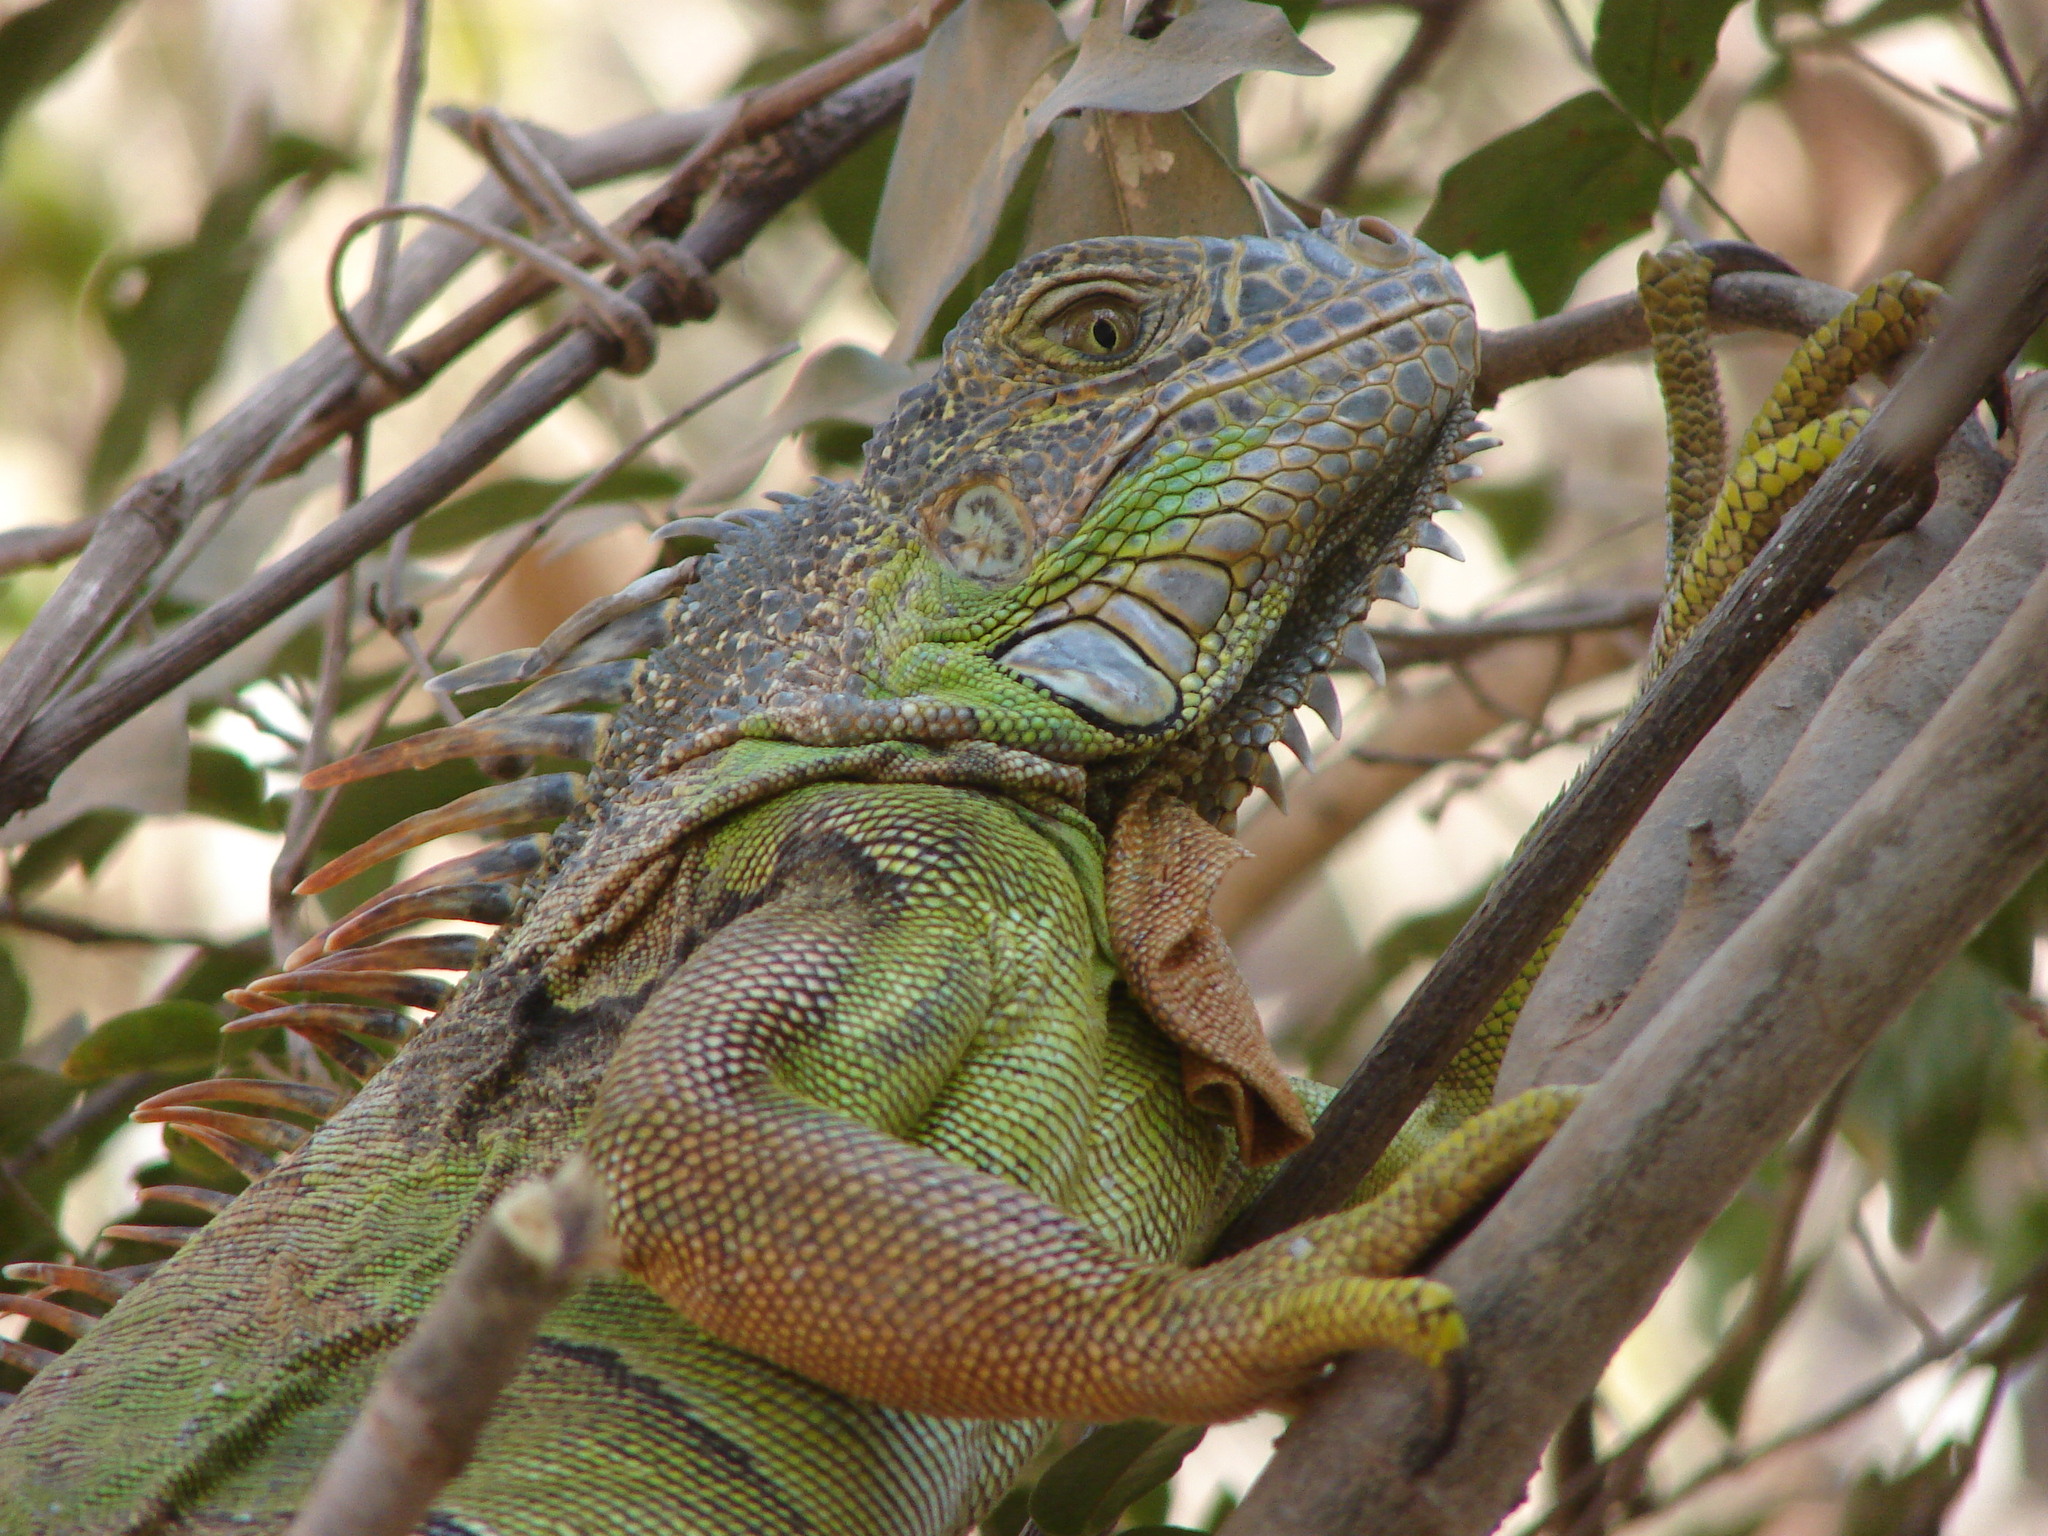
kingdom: Animalia
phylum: Chordata
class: Squamata
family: Iguanidae
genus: Iguana
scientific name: Iguana iguana
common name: Green iguana
